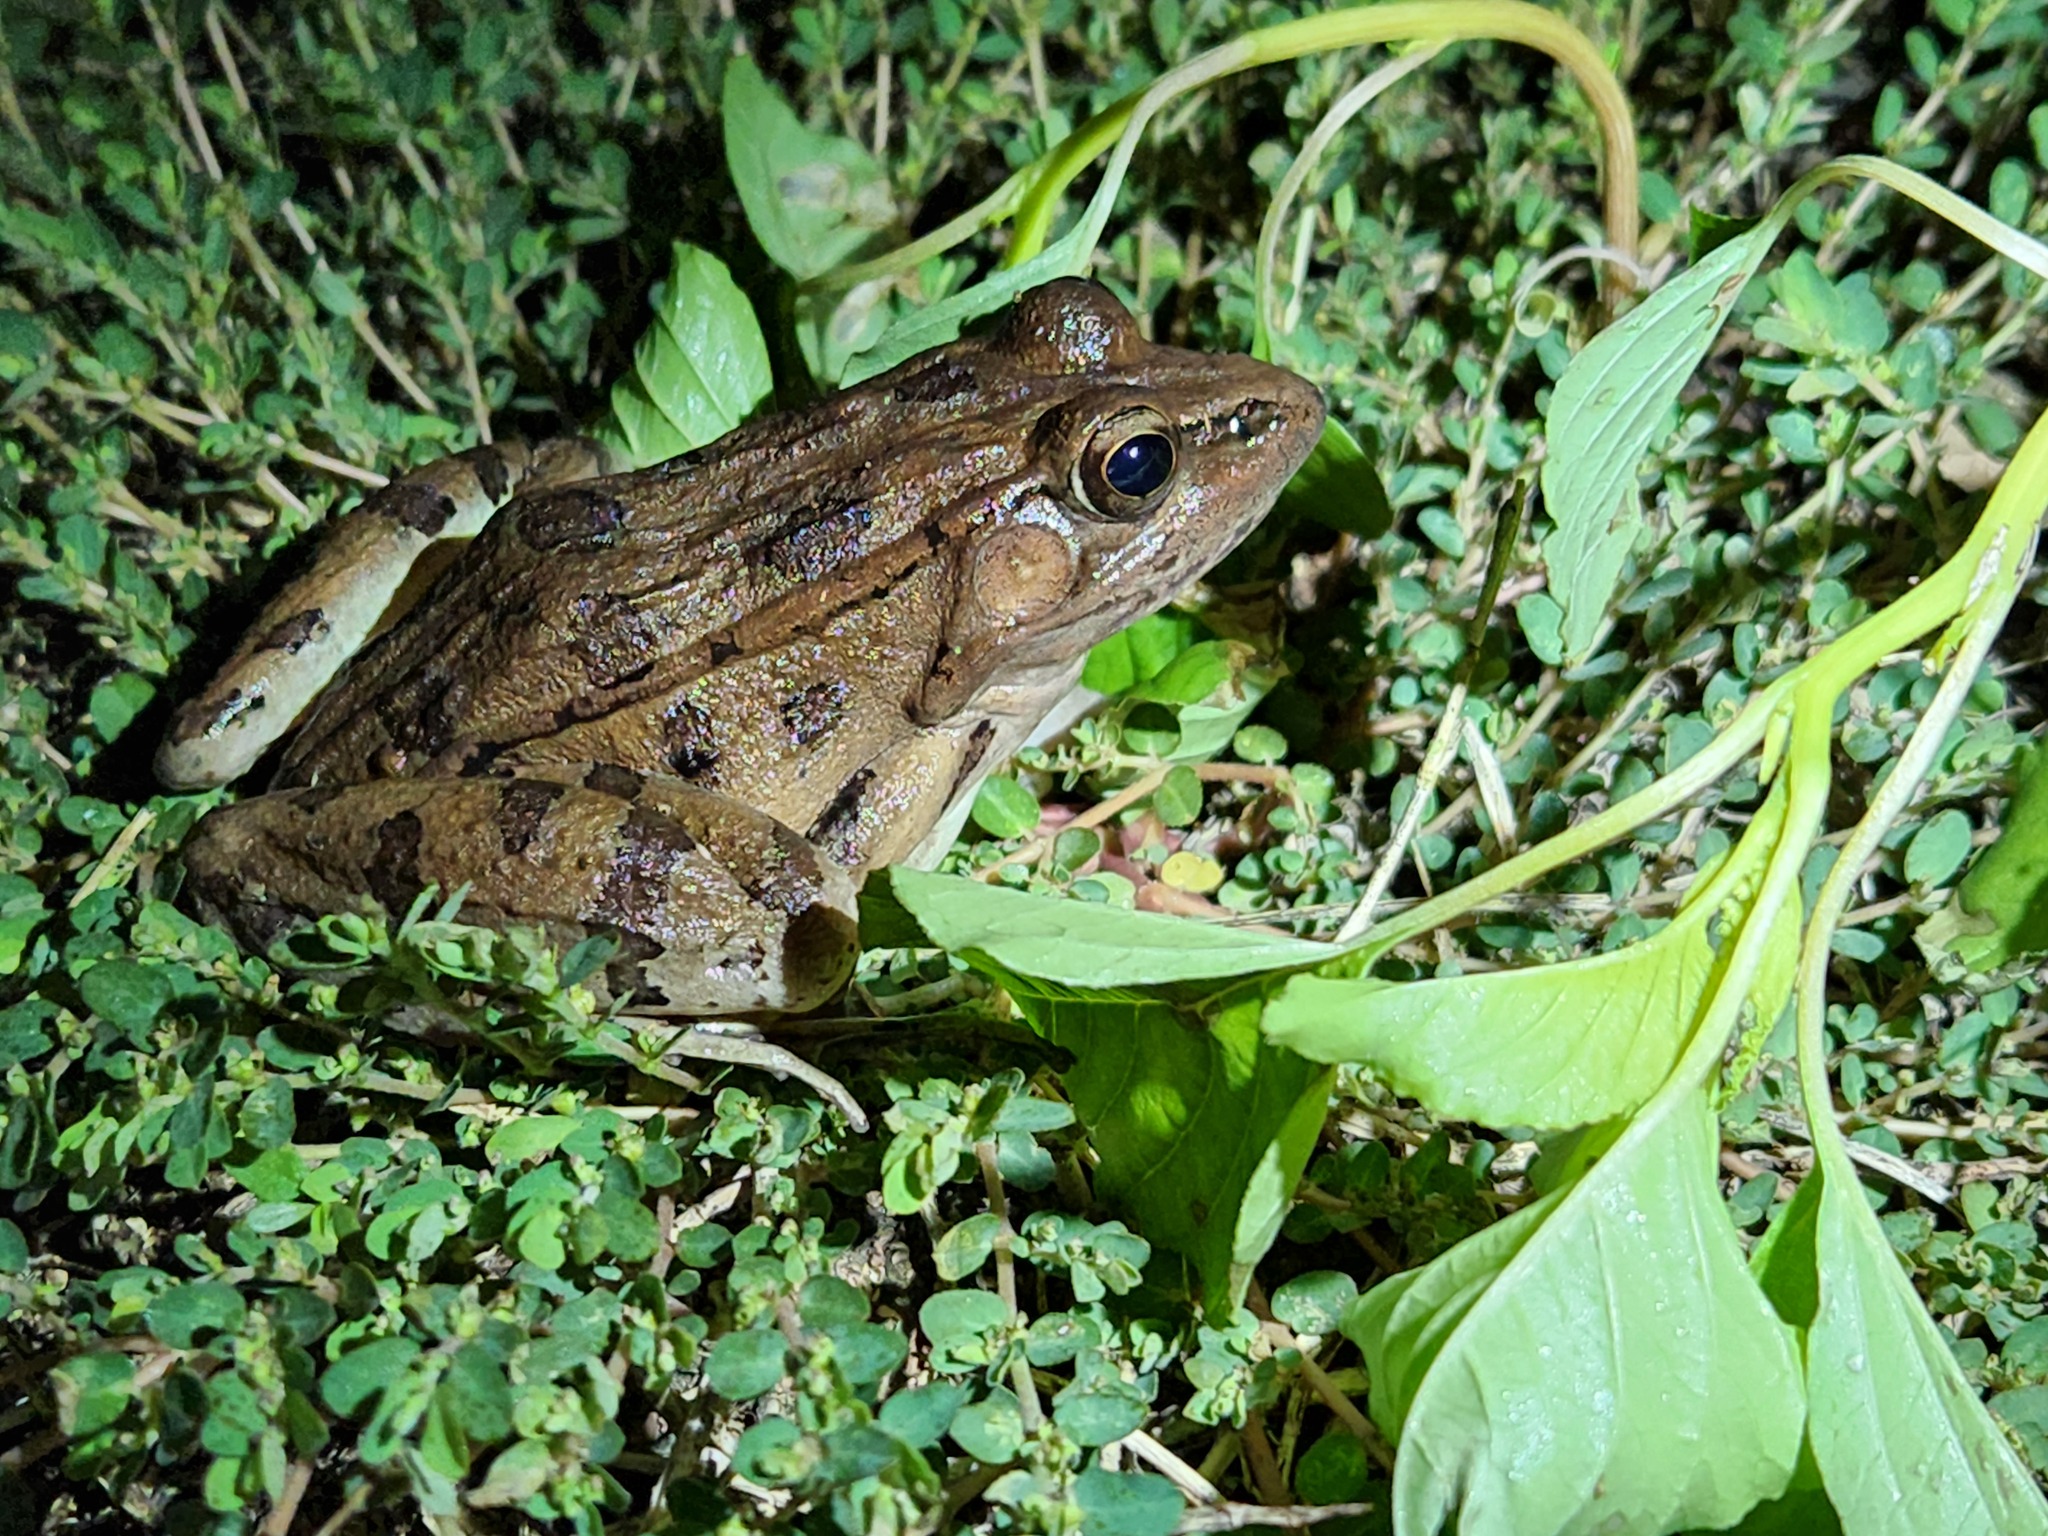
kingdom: Animalia
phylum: Chordata
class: Amphibia
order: Anura
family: Ranidae
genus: Lithobates
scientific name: Lithobates sphenocephalus
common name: Southern leopard frog
